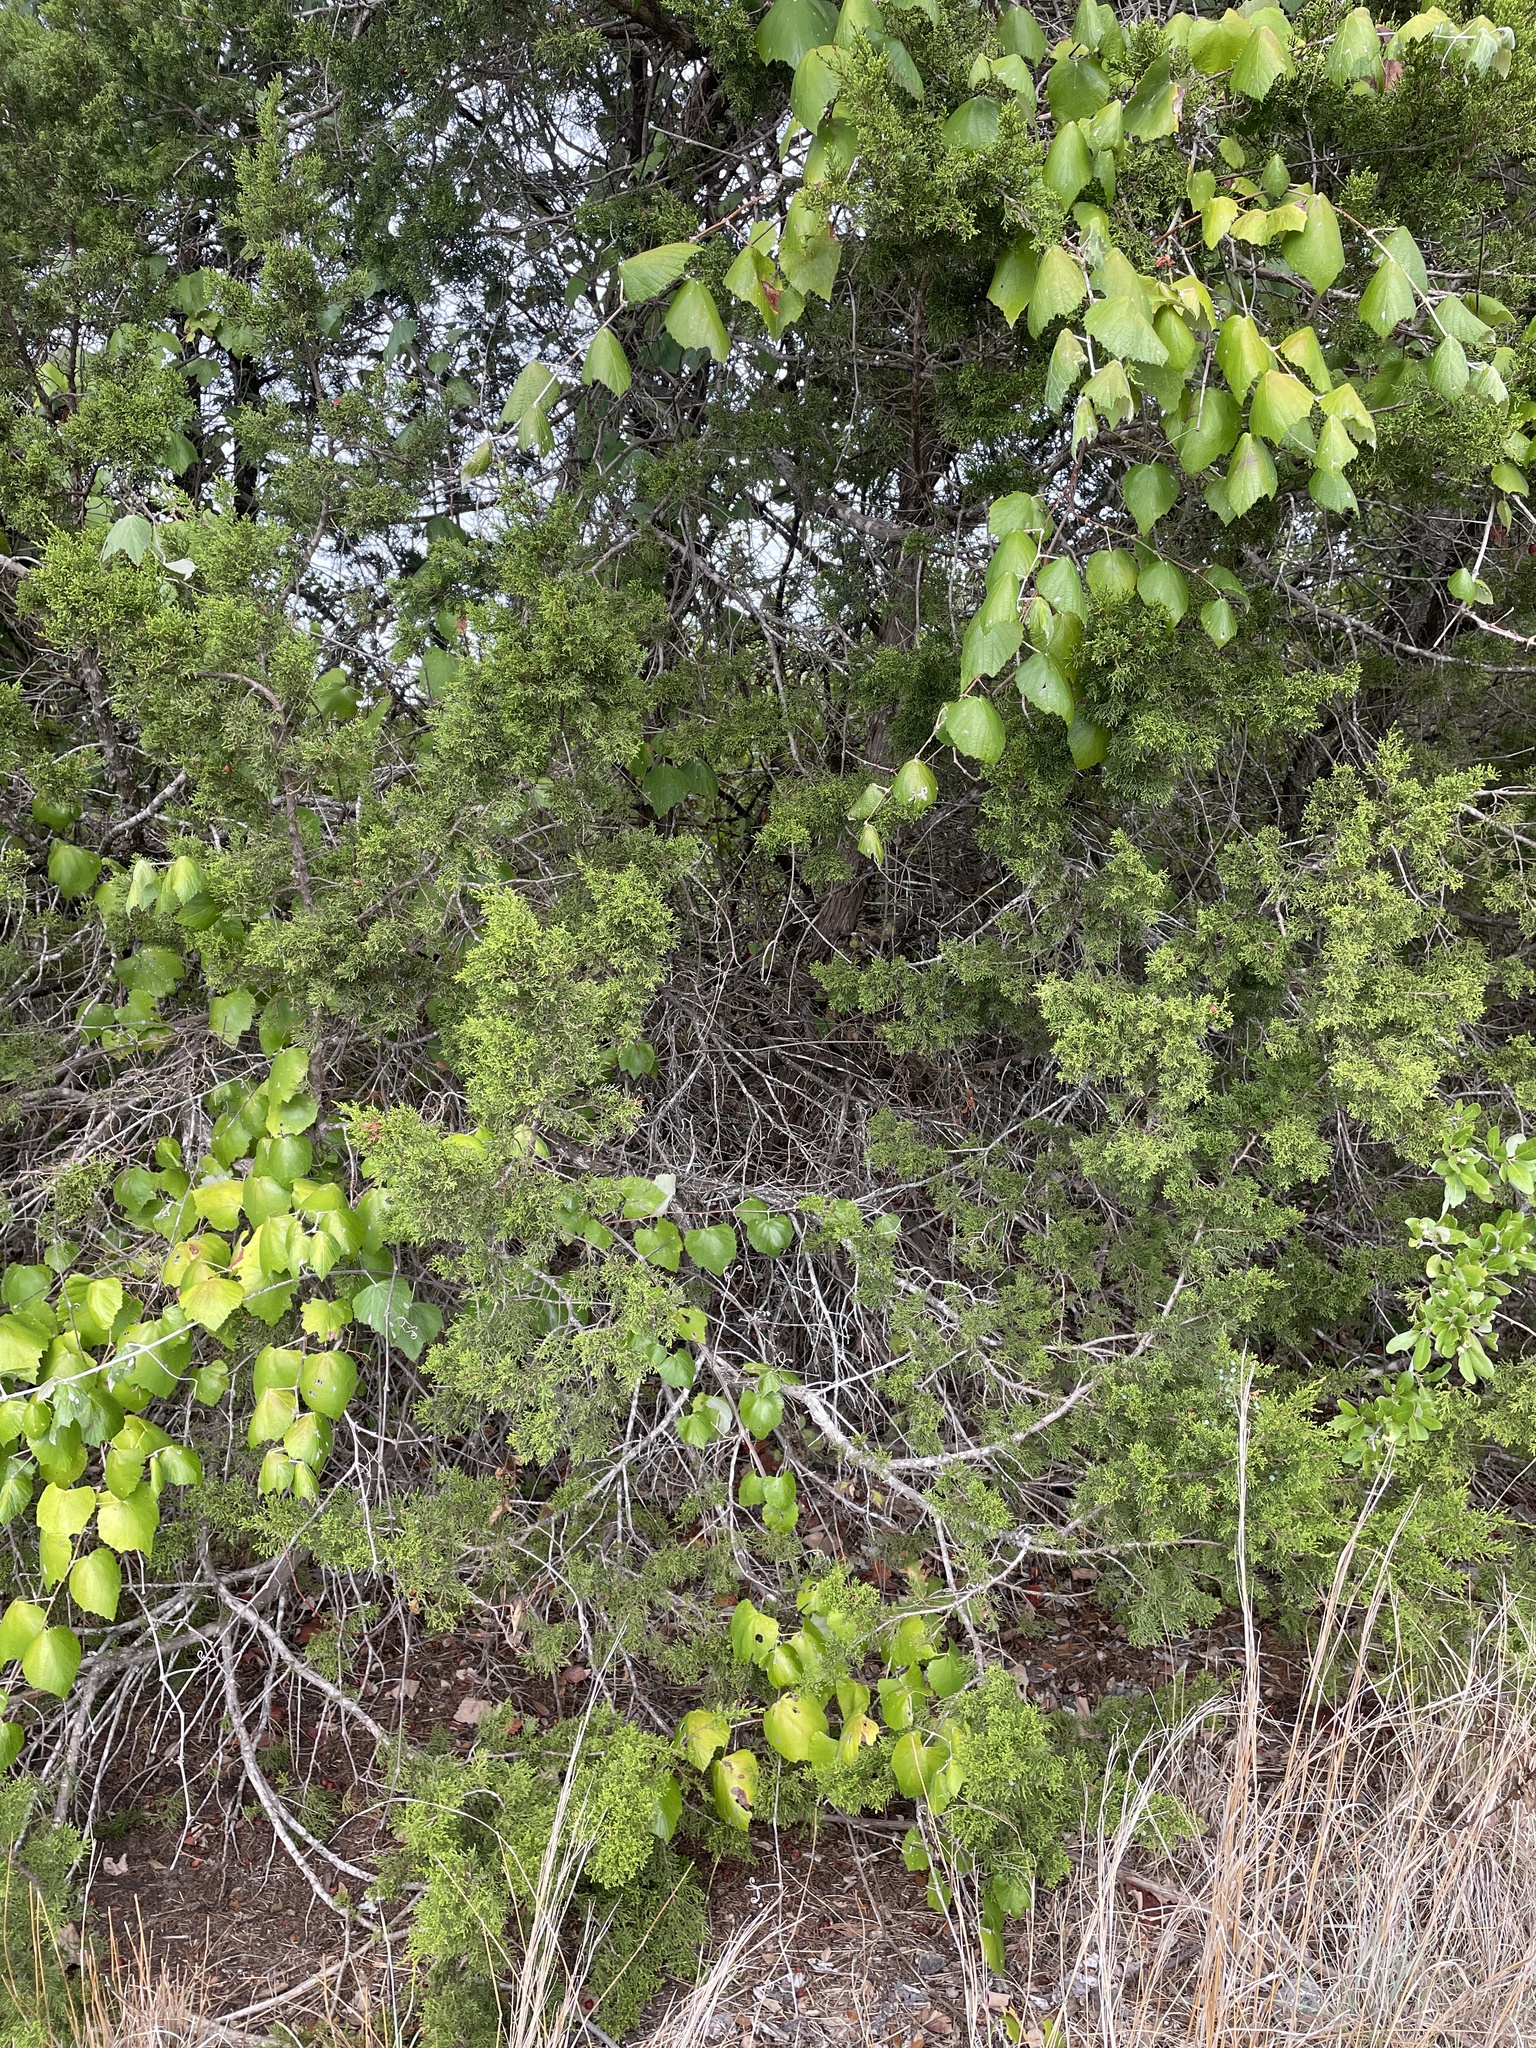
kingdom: Plantae
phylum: Tracheophyta
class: Pinopsida
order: Pinales
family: Cupressaceae
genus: Juniperus
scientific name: Juniperus ashei
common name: Mexican juniper
